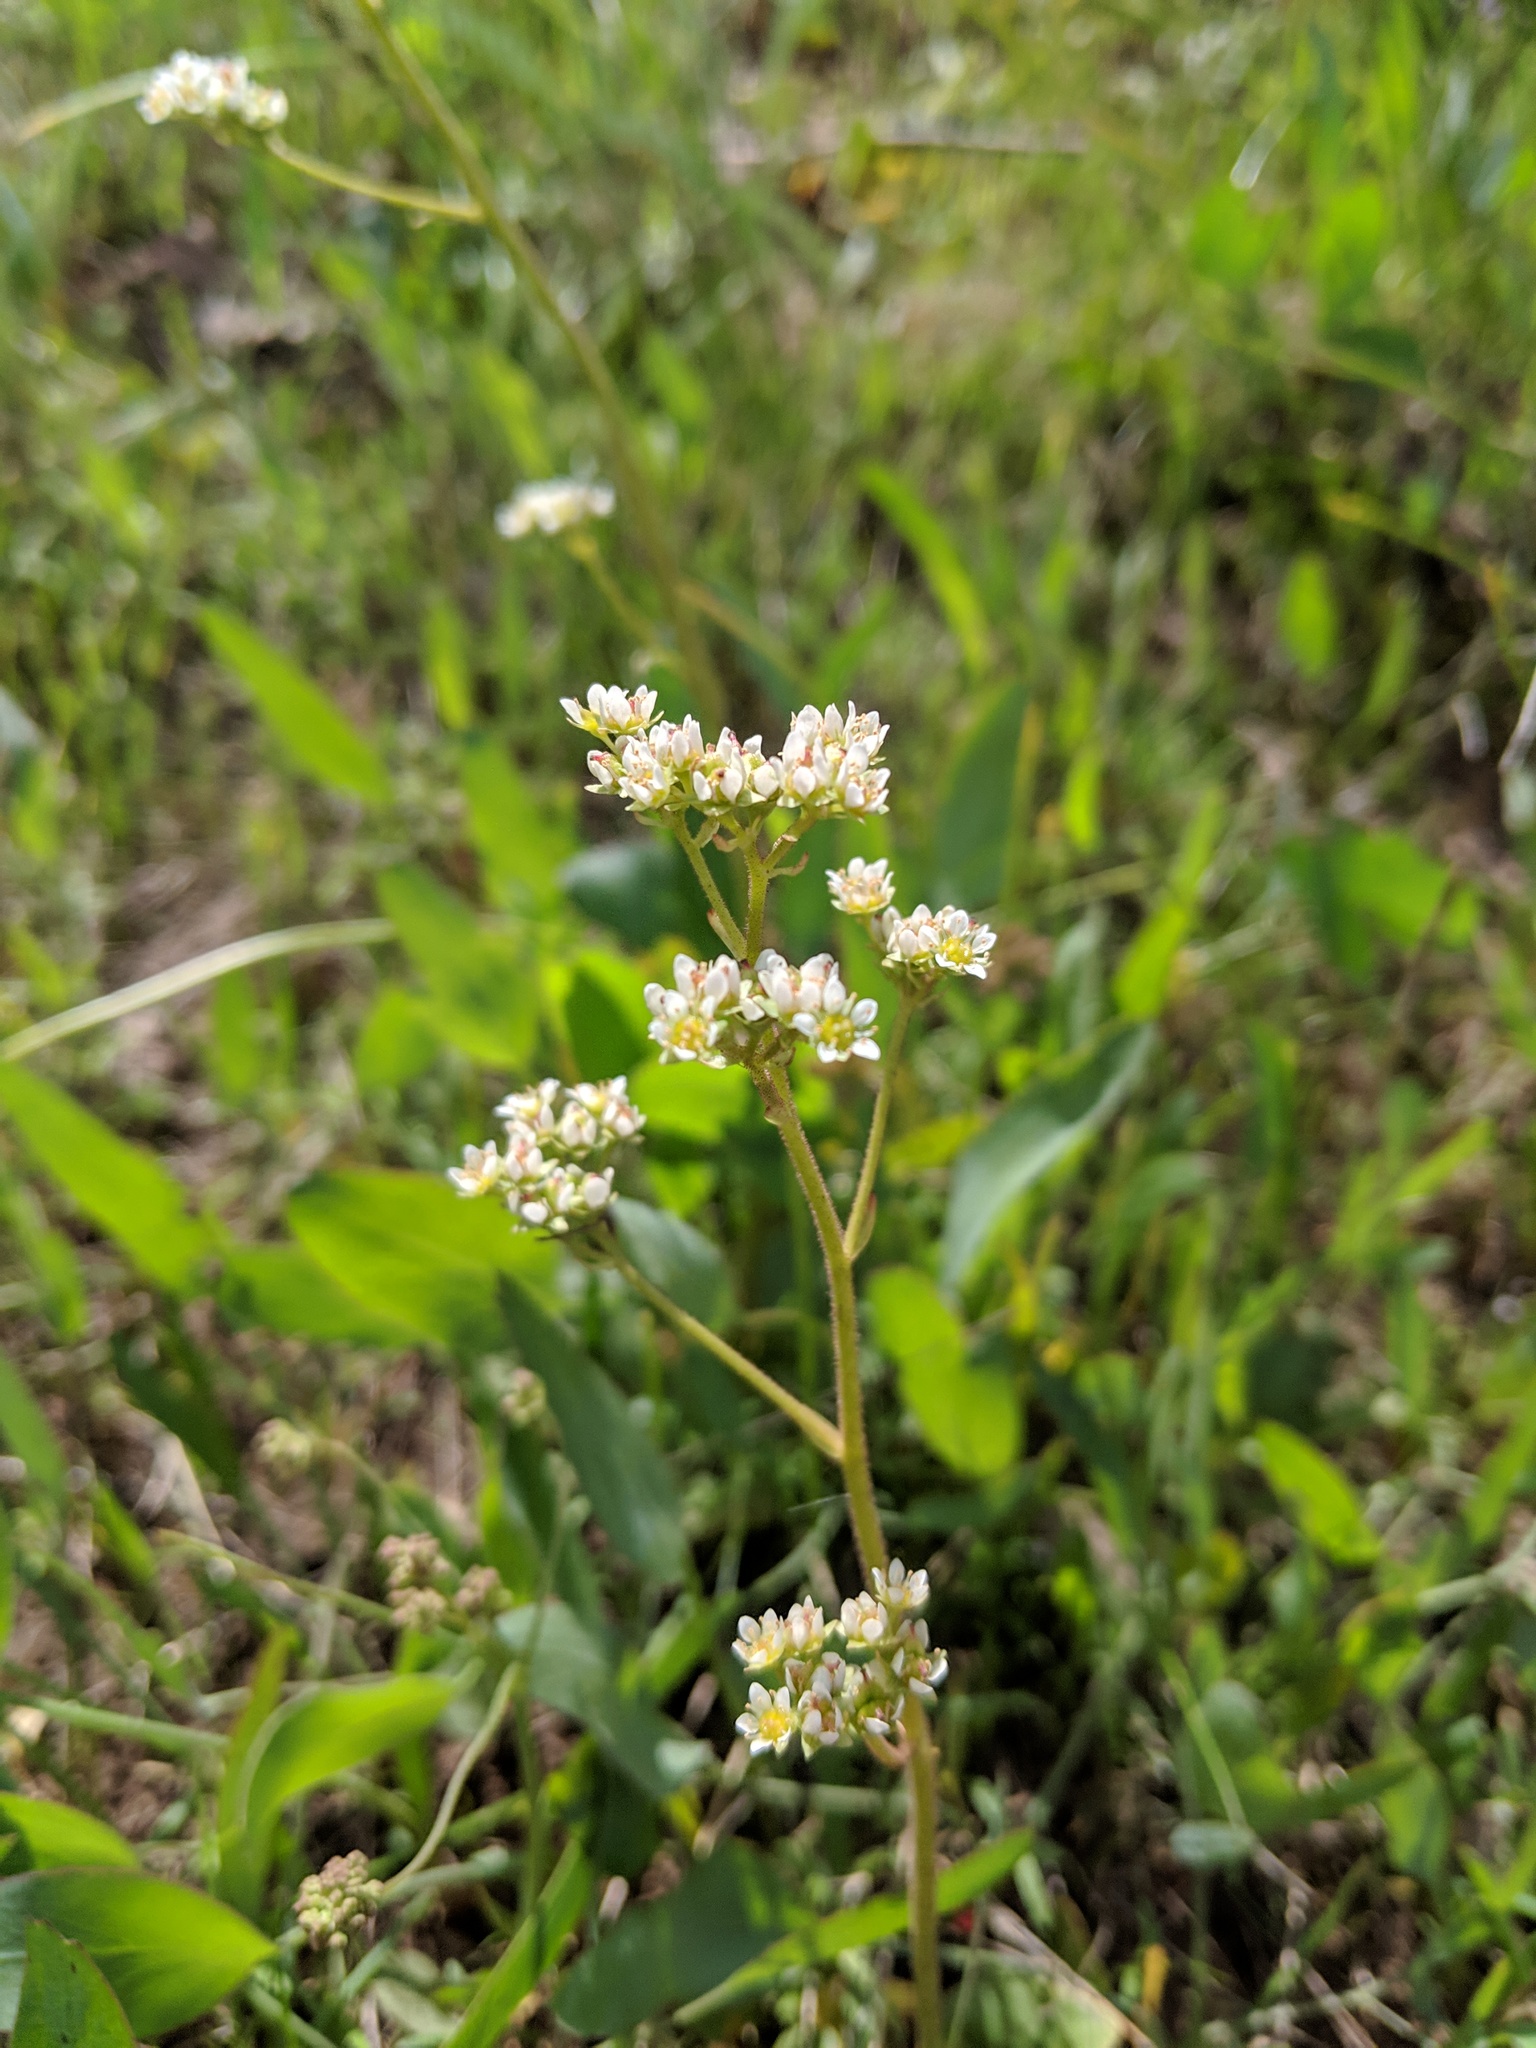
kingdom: Plantae
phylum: Tracheophyta
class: Magnoliopsida
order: Saxifragales
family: Saxifragaceae
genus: Micranthes
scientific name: Micranthes integrifolia
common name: Wholeleaf saxifrage
